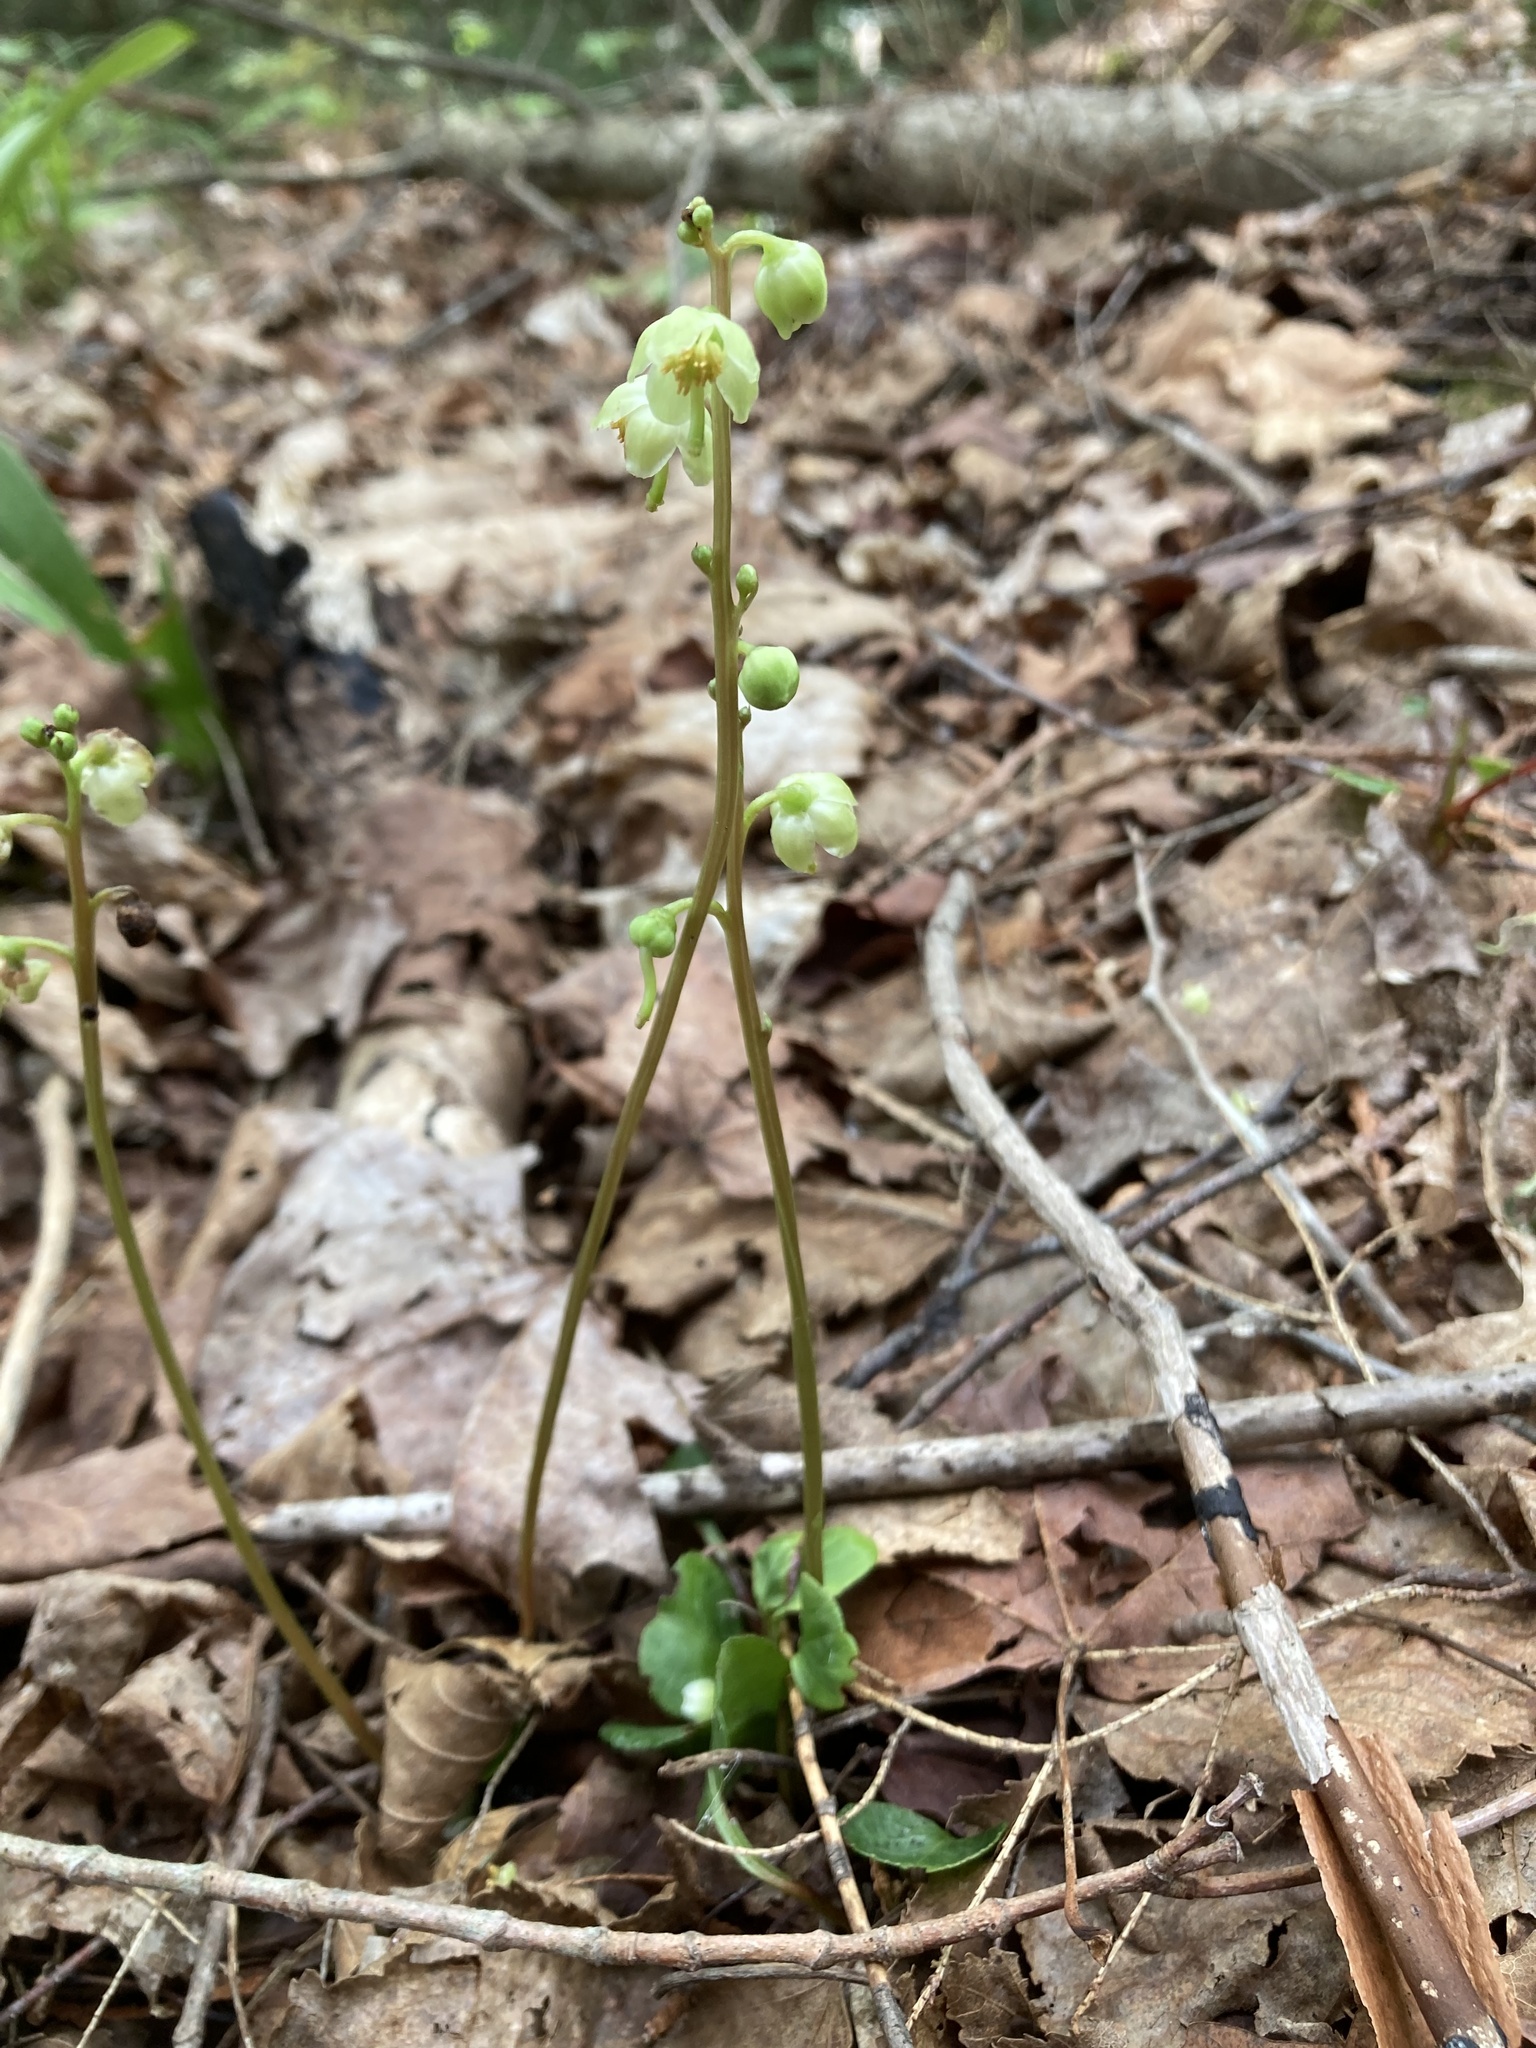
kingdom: Plantae
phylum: Tracheophyta
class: Magnoliopsida
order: Ericales
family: Ericaceae
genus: Pyrola
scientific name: Pyrola chlorantha
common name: Green wintergreen
